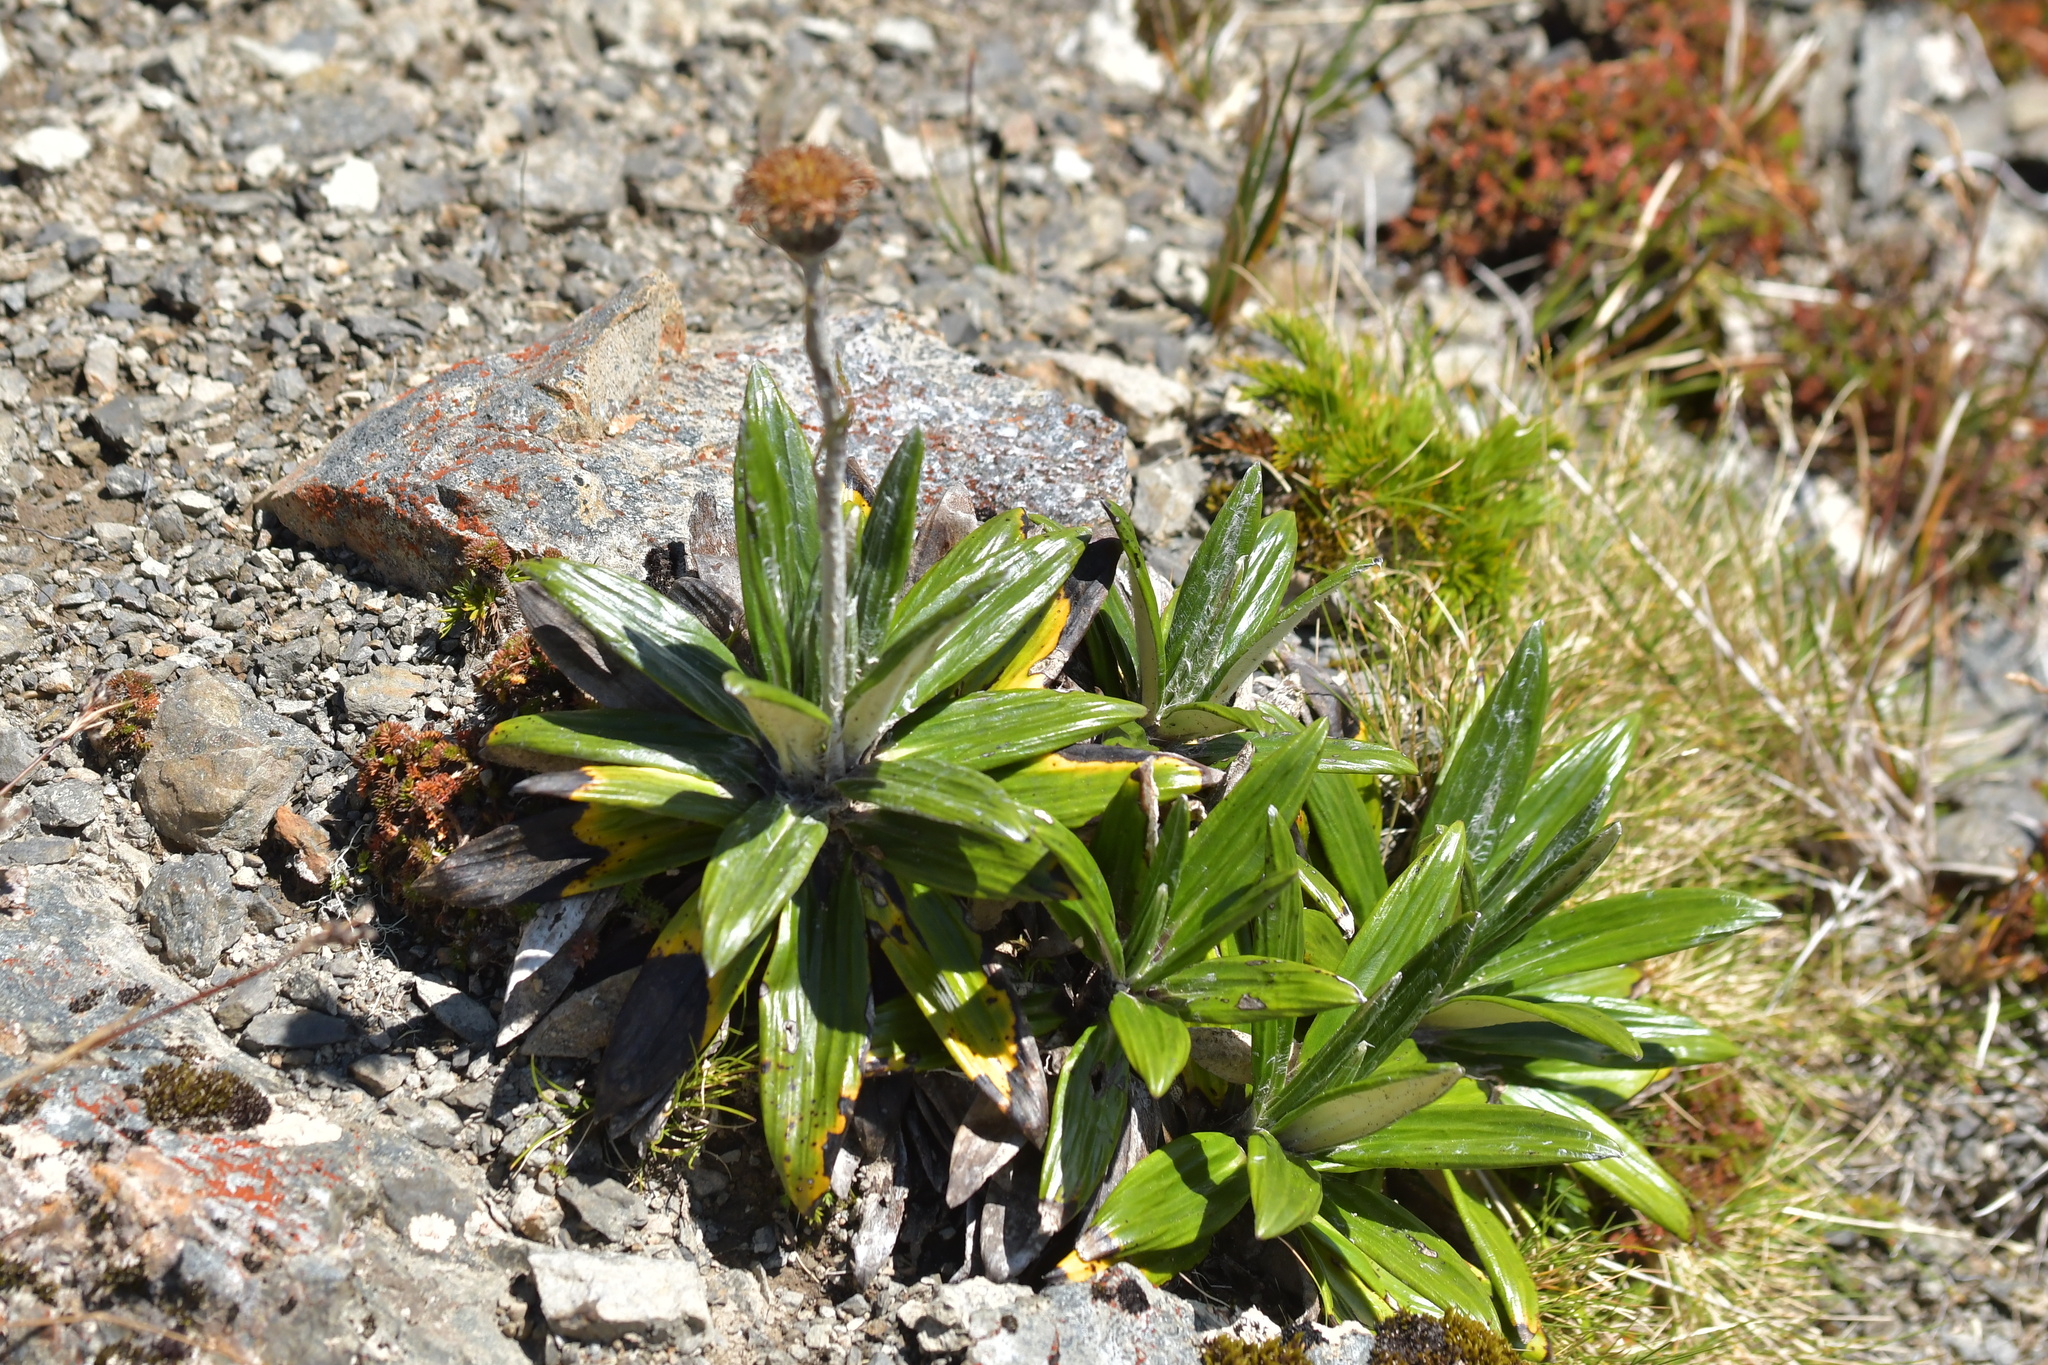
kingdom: Plantae
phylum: Tracheophyta
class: Magnoliopsida
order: Asterales
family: Asteraceae
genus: Celmisia
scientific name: Celmisia spectabilis
